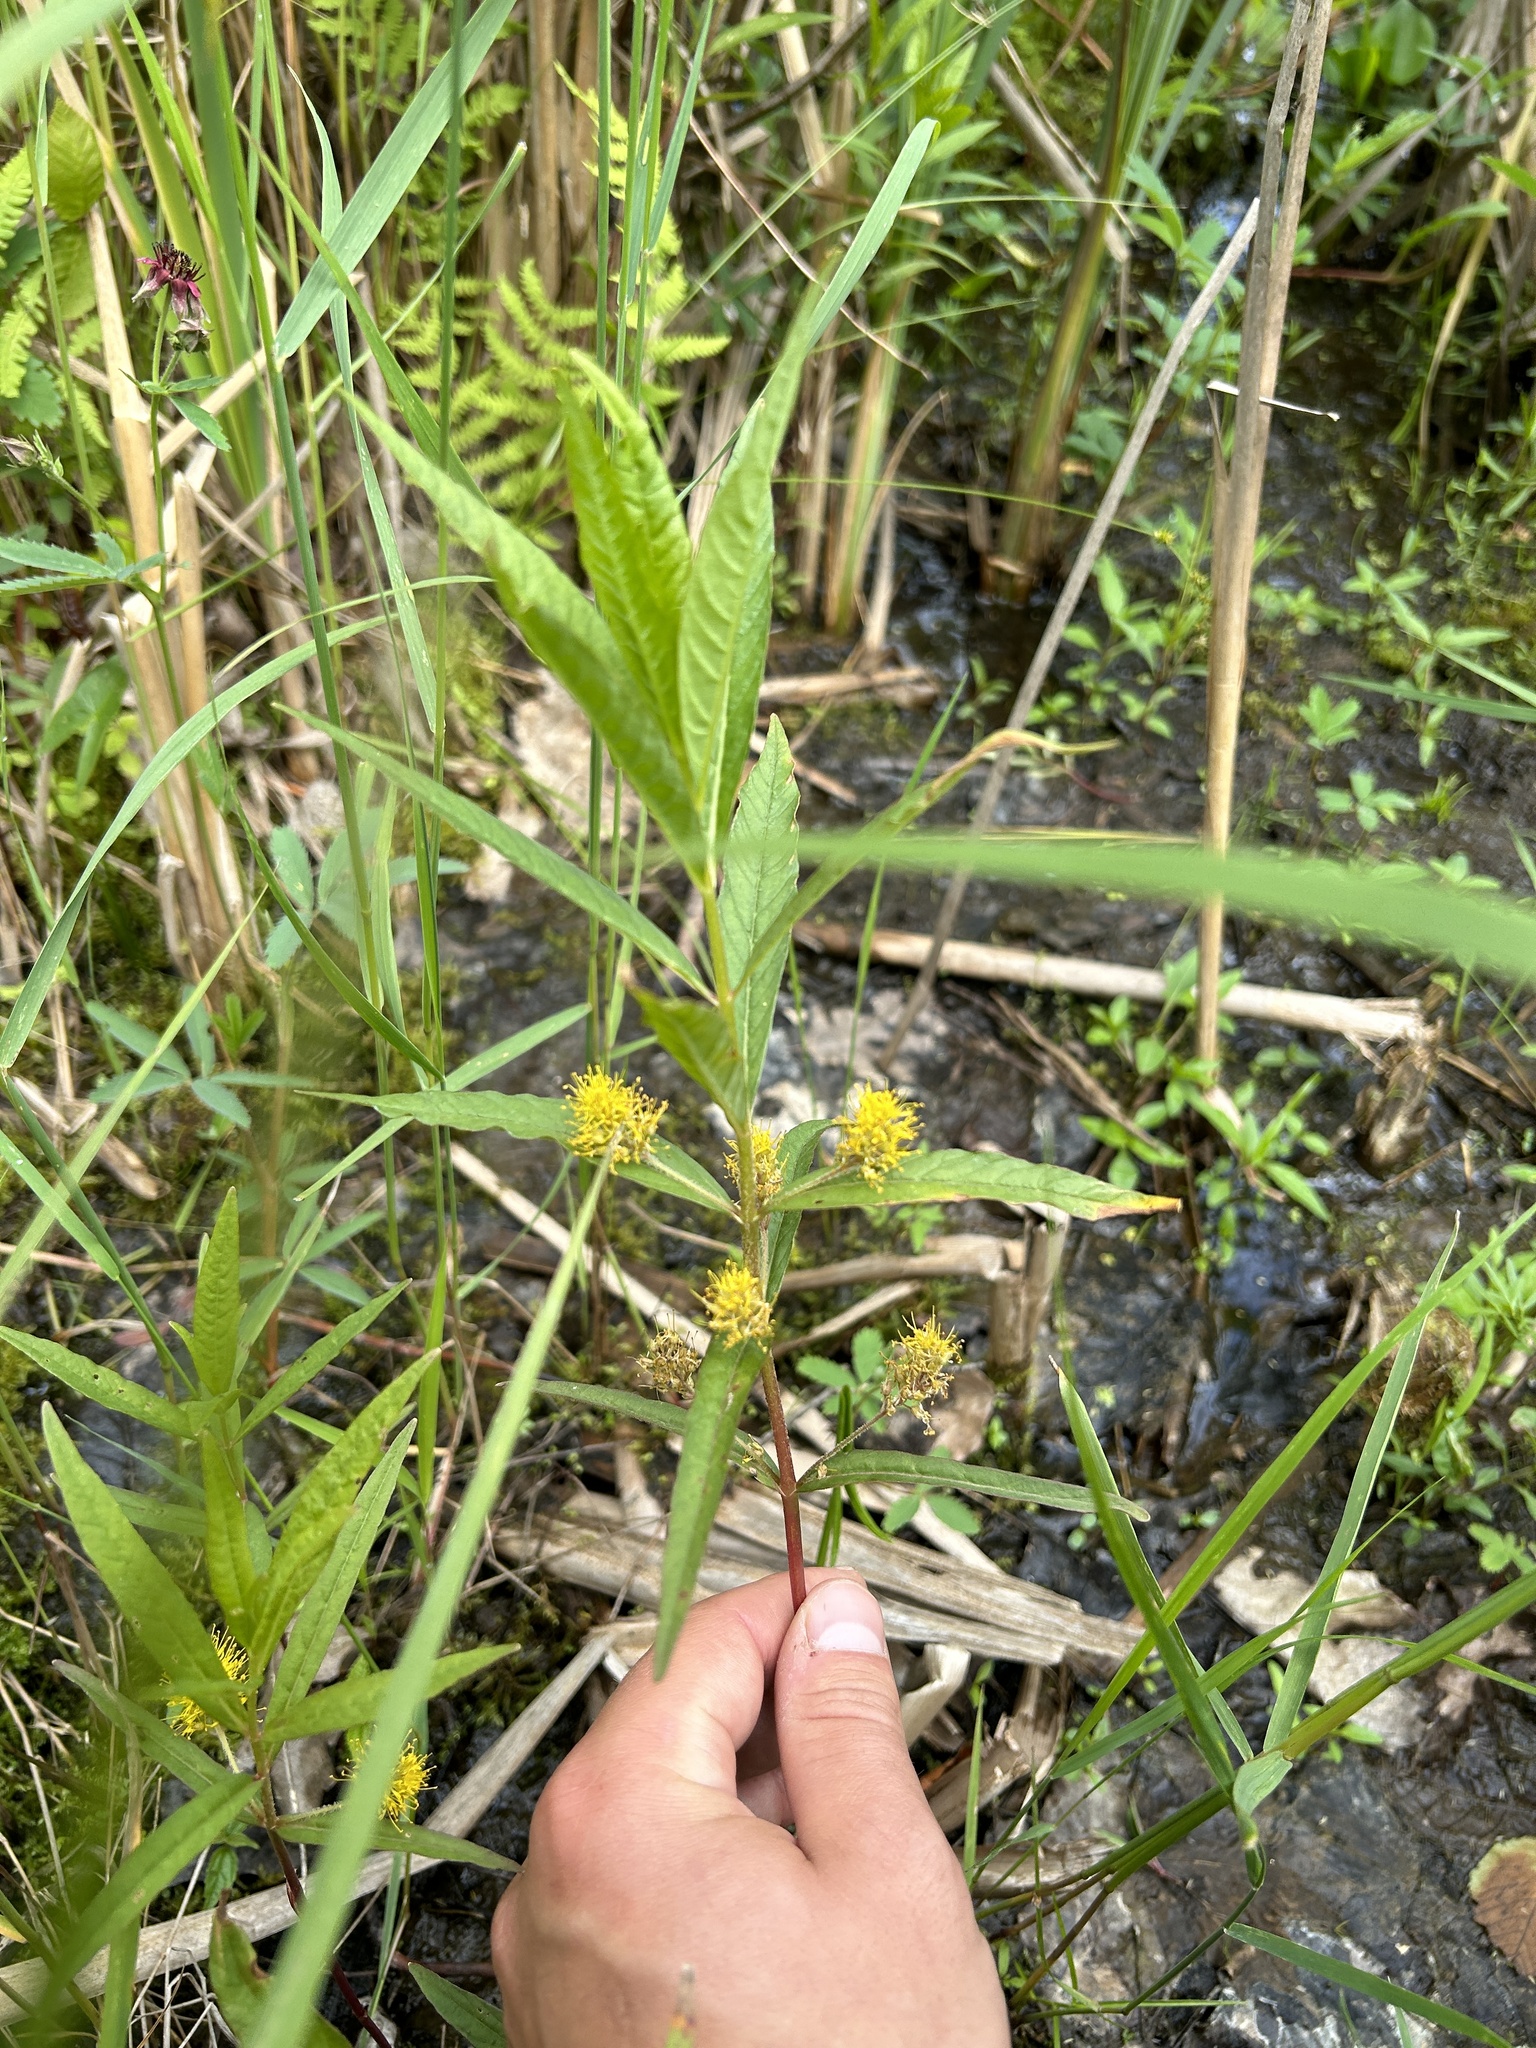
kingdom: Plantae
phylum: Tracheophyta
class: Magnoliopsida
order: Ericales
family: Primulaceae
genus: Lysimachia
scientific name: Lysimachia thyrsiflora
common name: Tufted loosestrife
